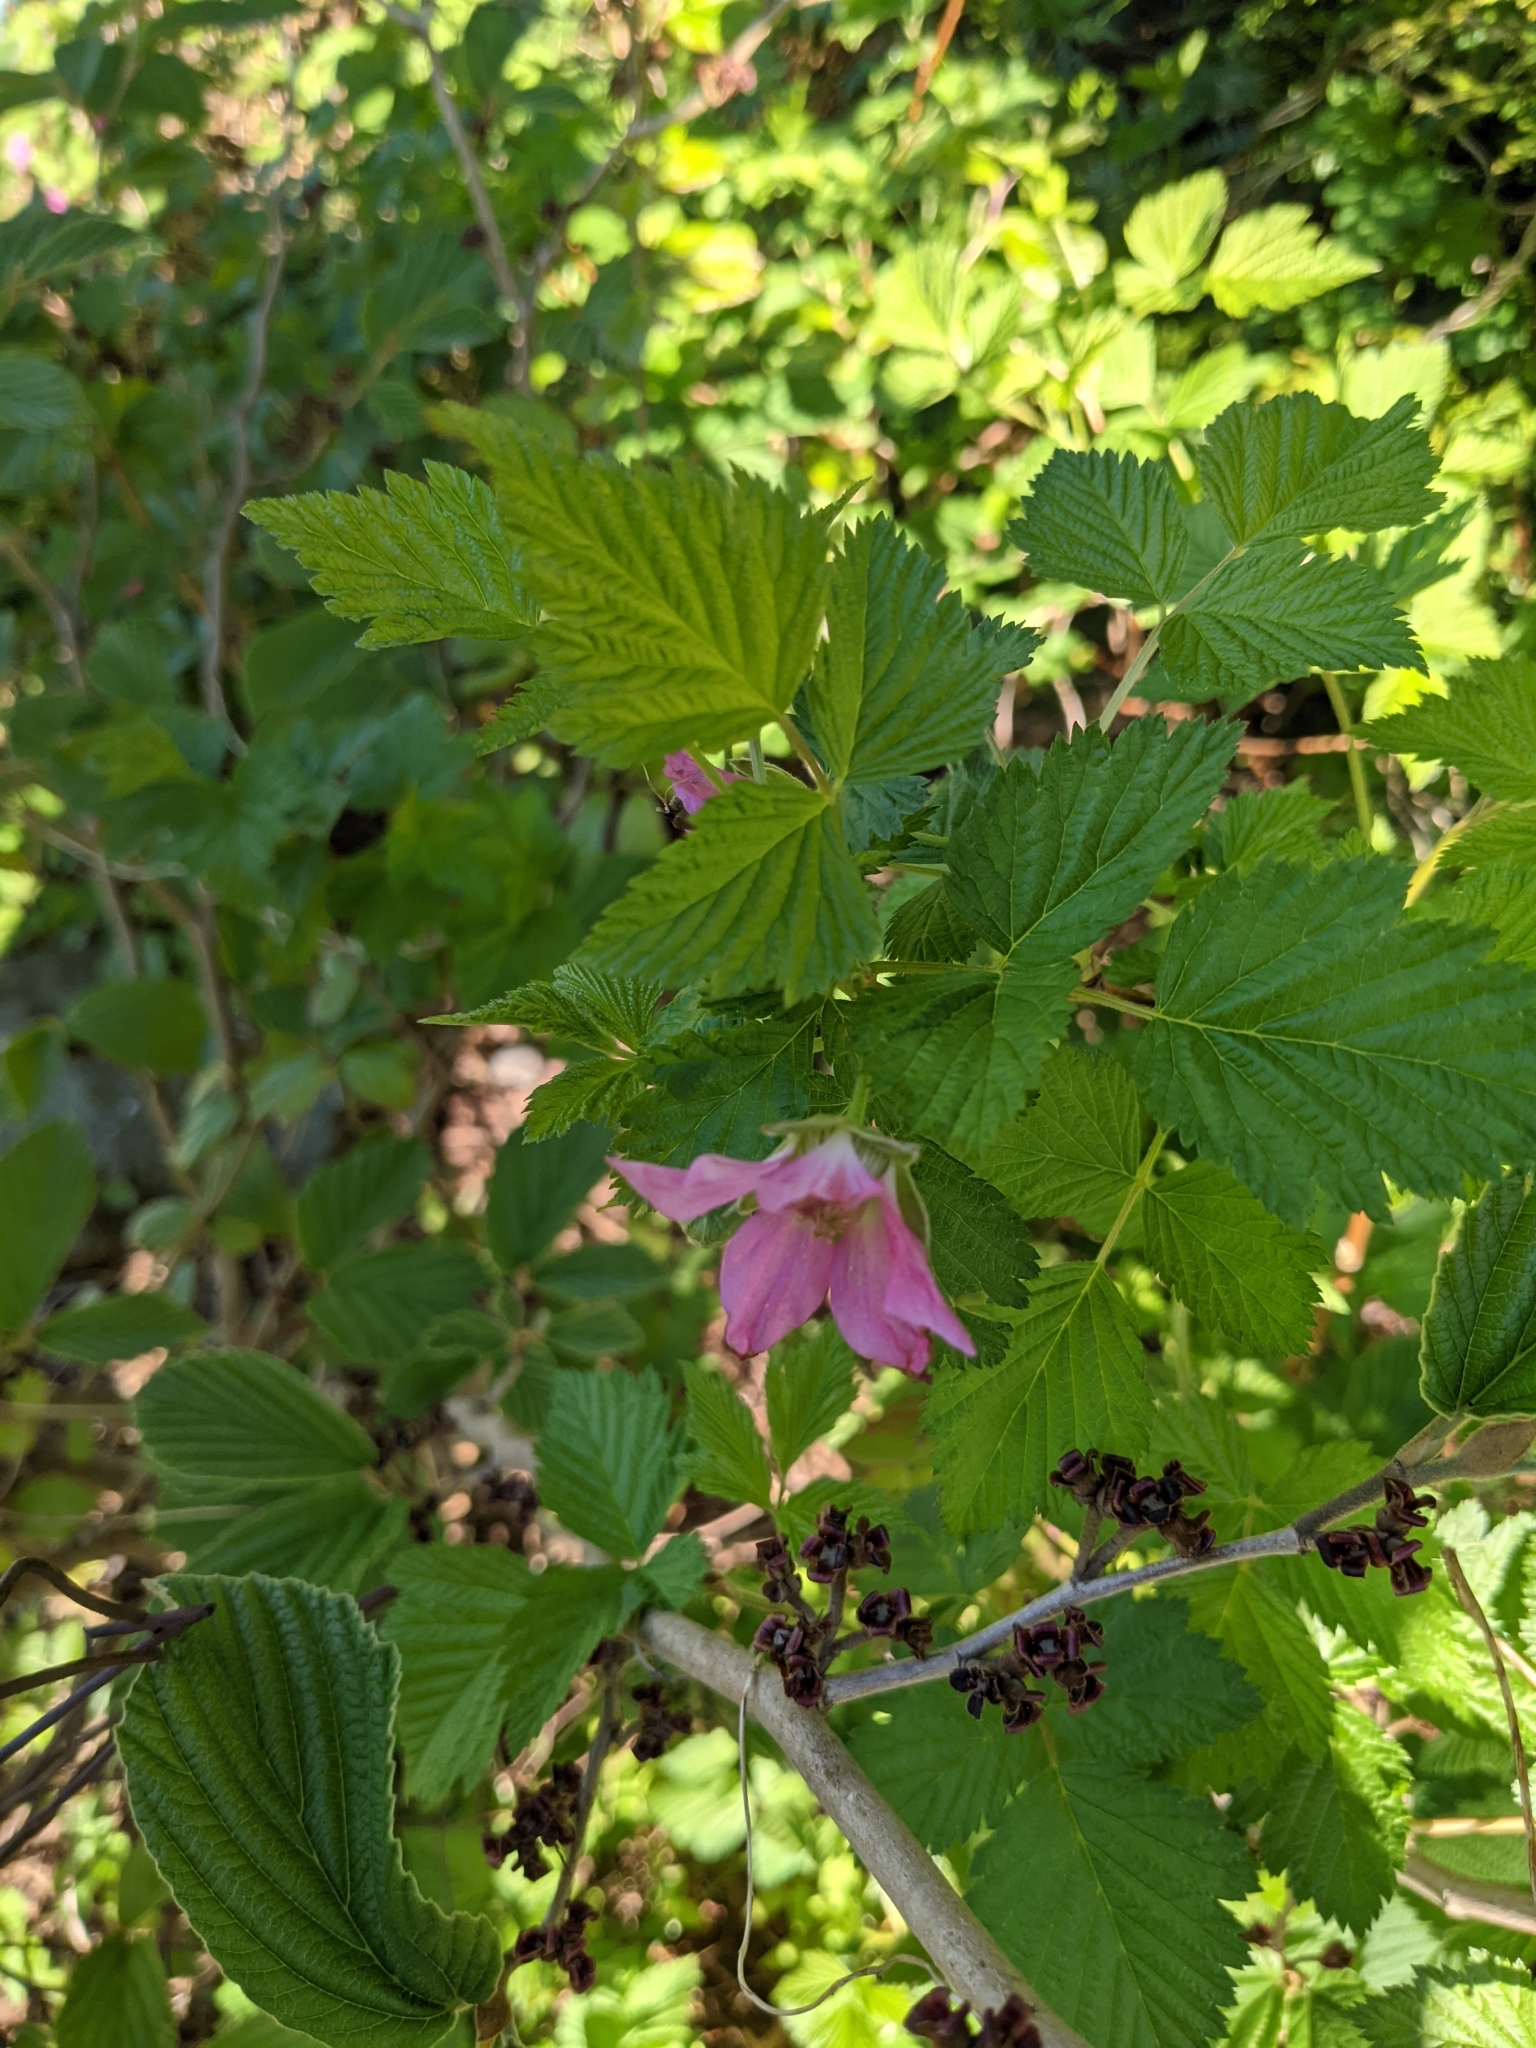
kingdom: Plantae
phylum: Tracheophyta
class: Magnoliopsida
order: Rosales
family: Rosaceae
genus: Rubus
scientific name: Rubus spectabilis
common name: Salmonberry
